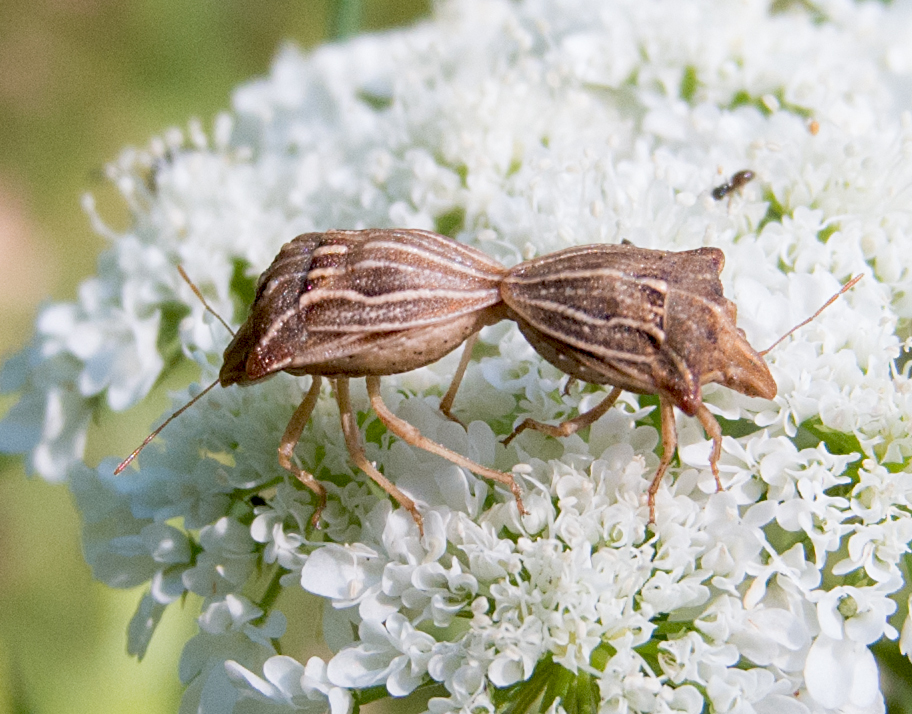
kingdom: Animalia
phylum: Arthropoda
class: Insecta
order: Hemiptera
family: Pentatomidae
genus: Ancyrosoma
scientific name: Ancyrosoma leucogrammes
